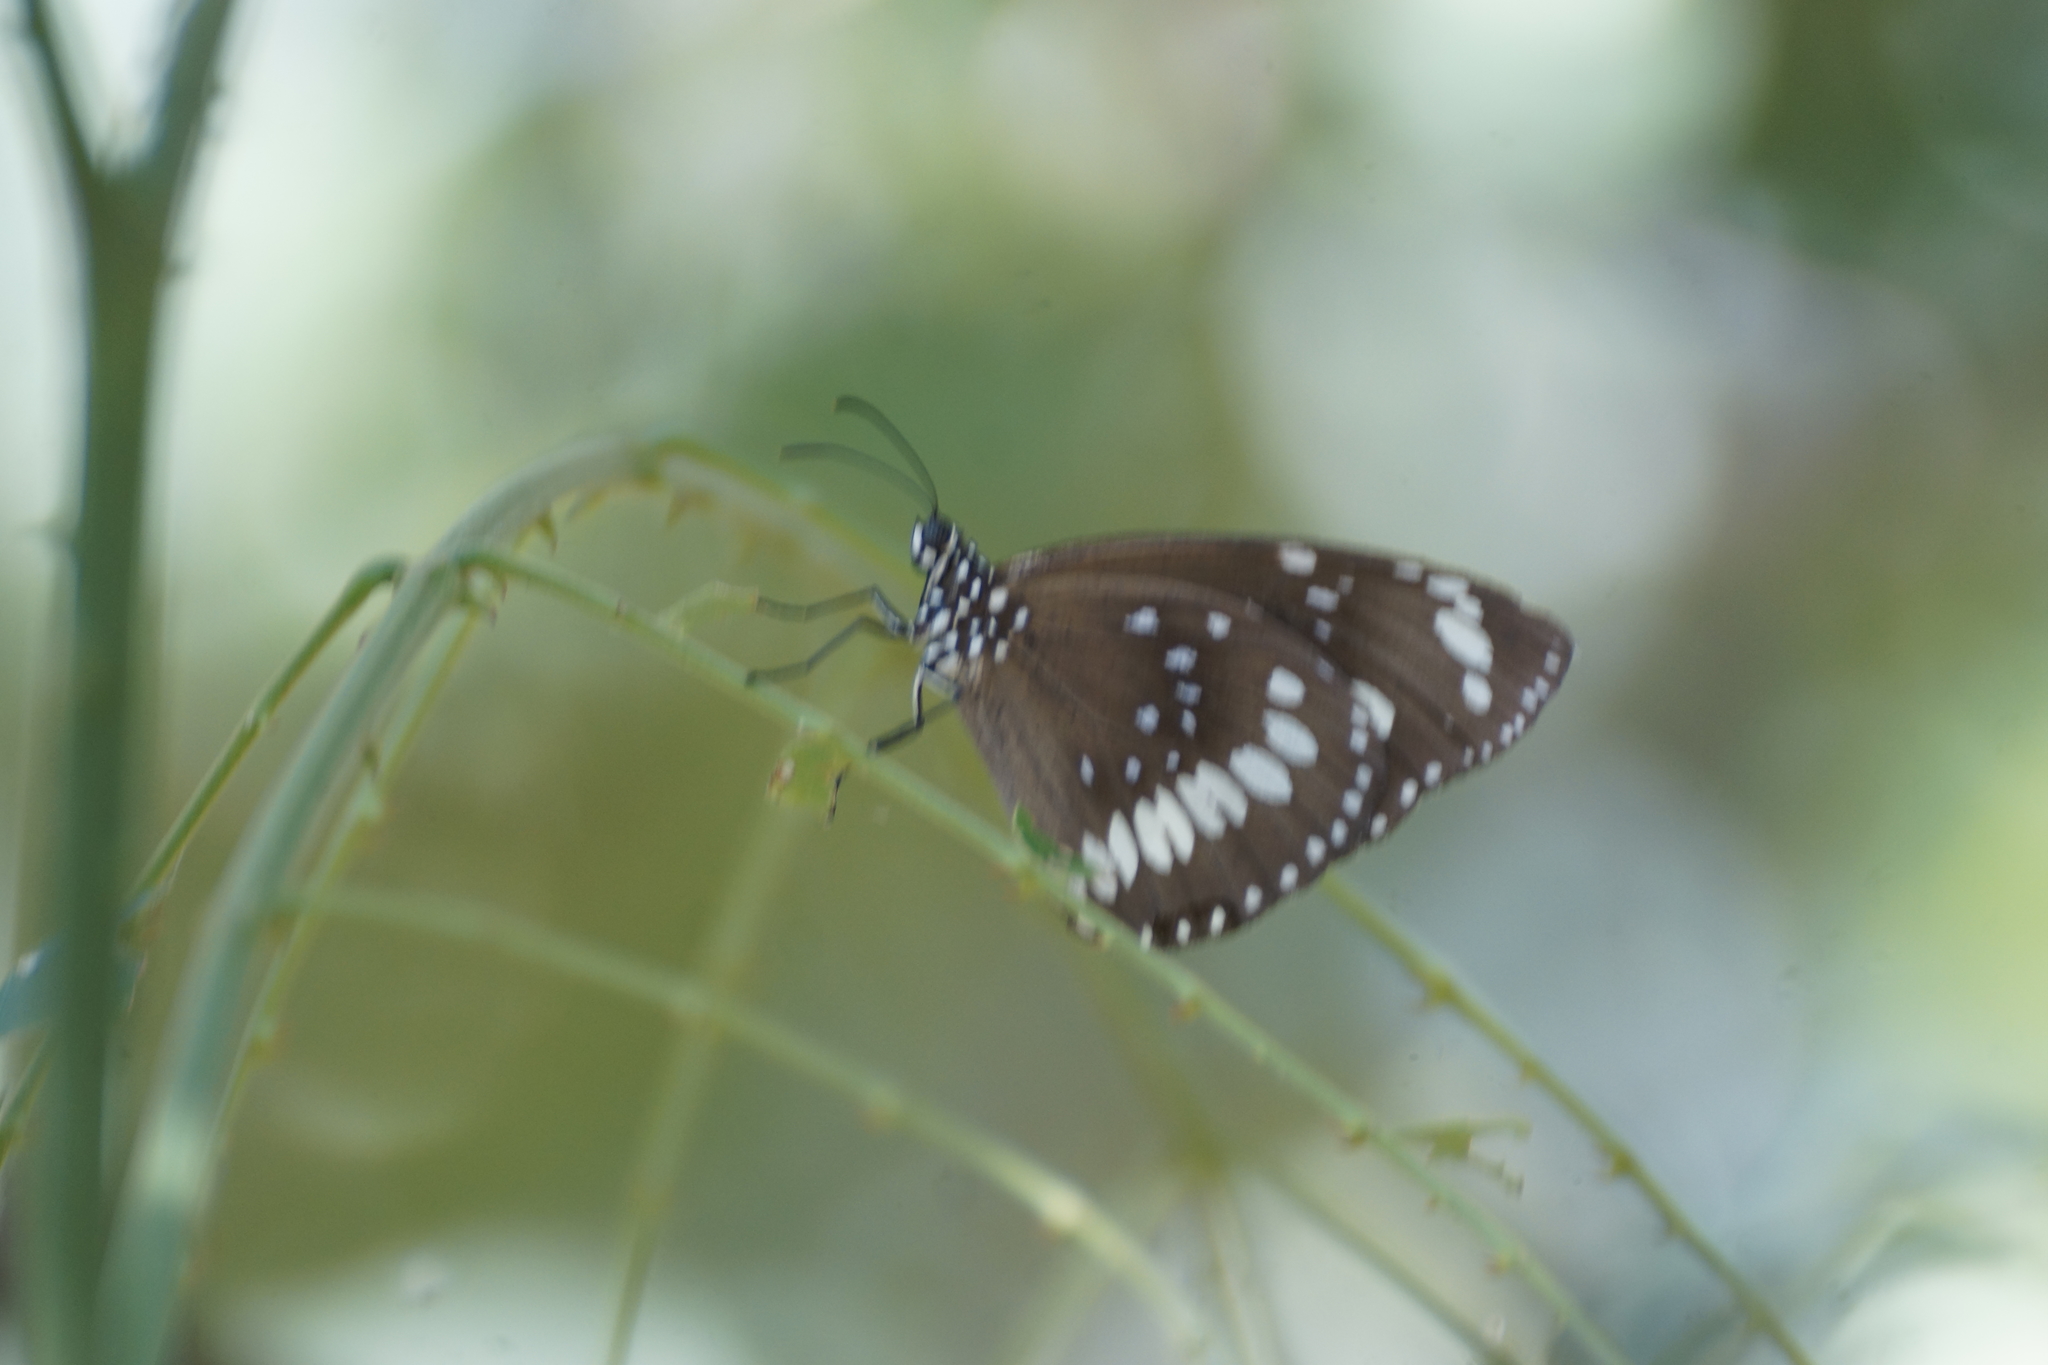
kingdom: Animalia
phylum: Arthropoda
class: Insecta
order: Lepidoptera
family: Nymphalidae
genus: Euploea
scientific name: Euploea core
